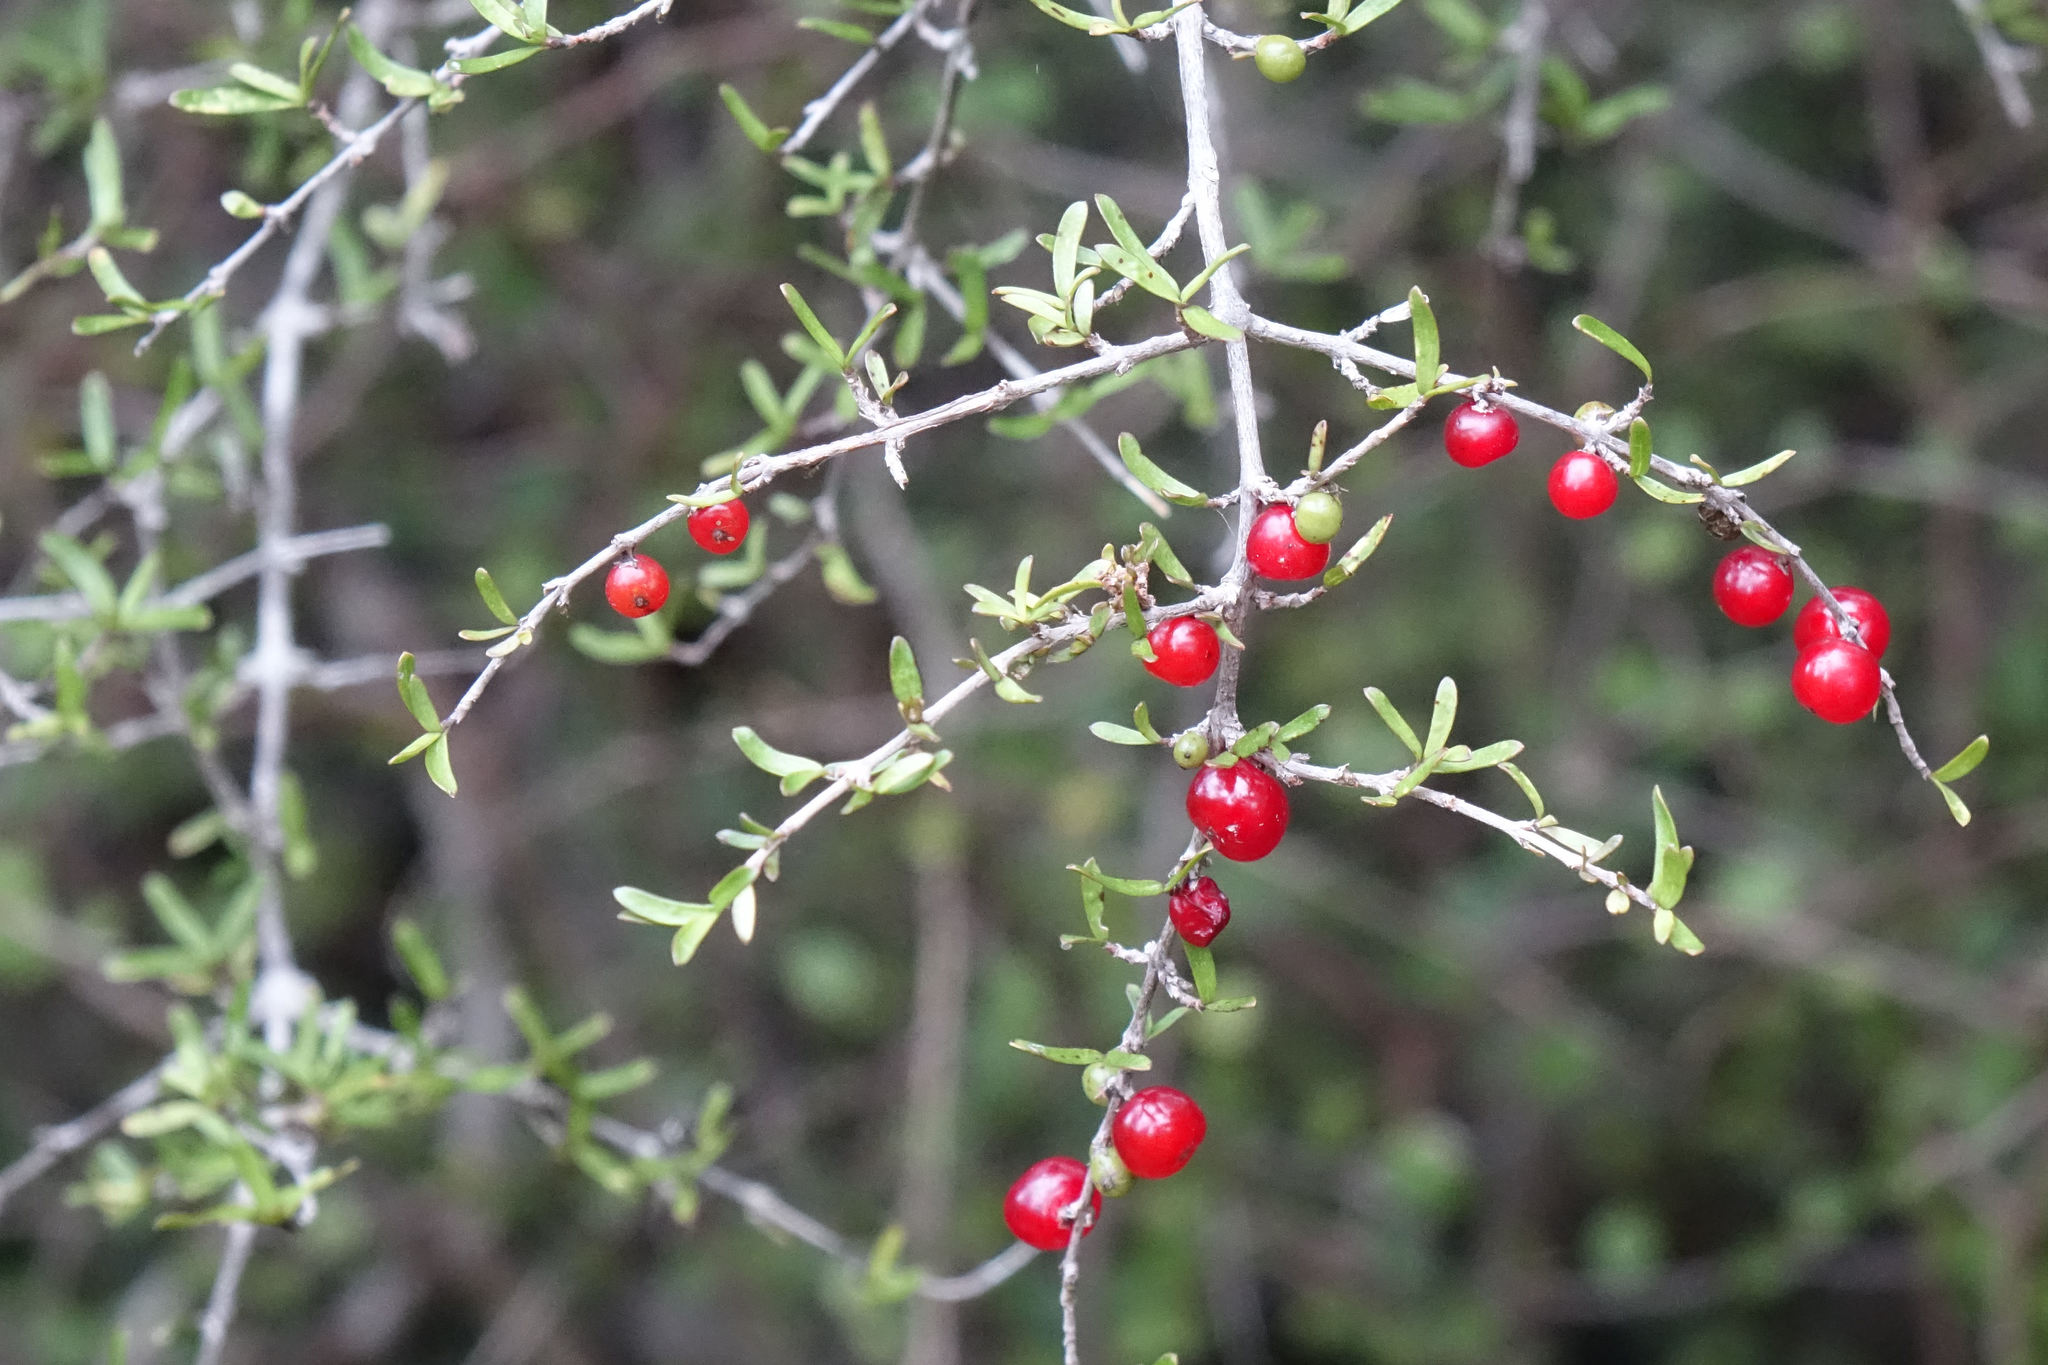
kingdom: Plantae
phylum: Tracheophyta
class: Magnoliopsida
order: Gentianales
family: Rubiaceae
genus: Coprosma
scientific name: Coprosma decurva
